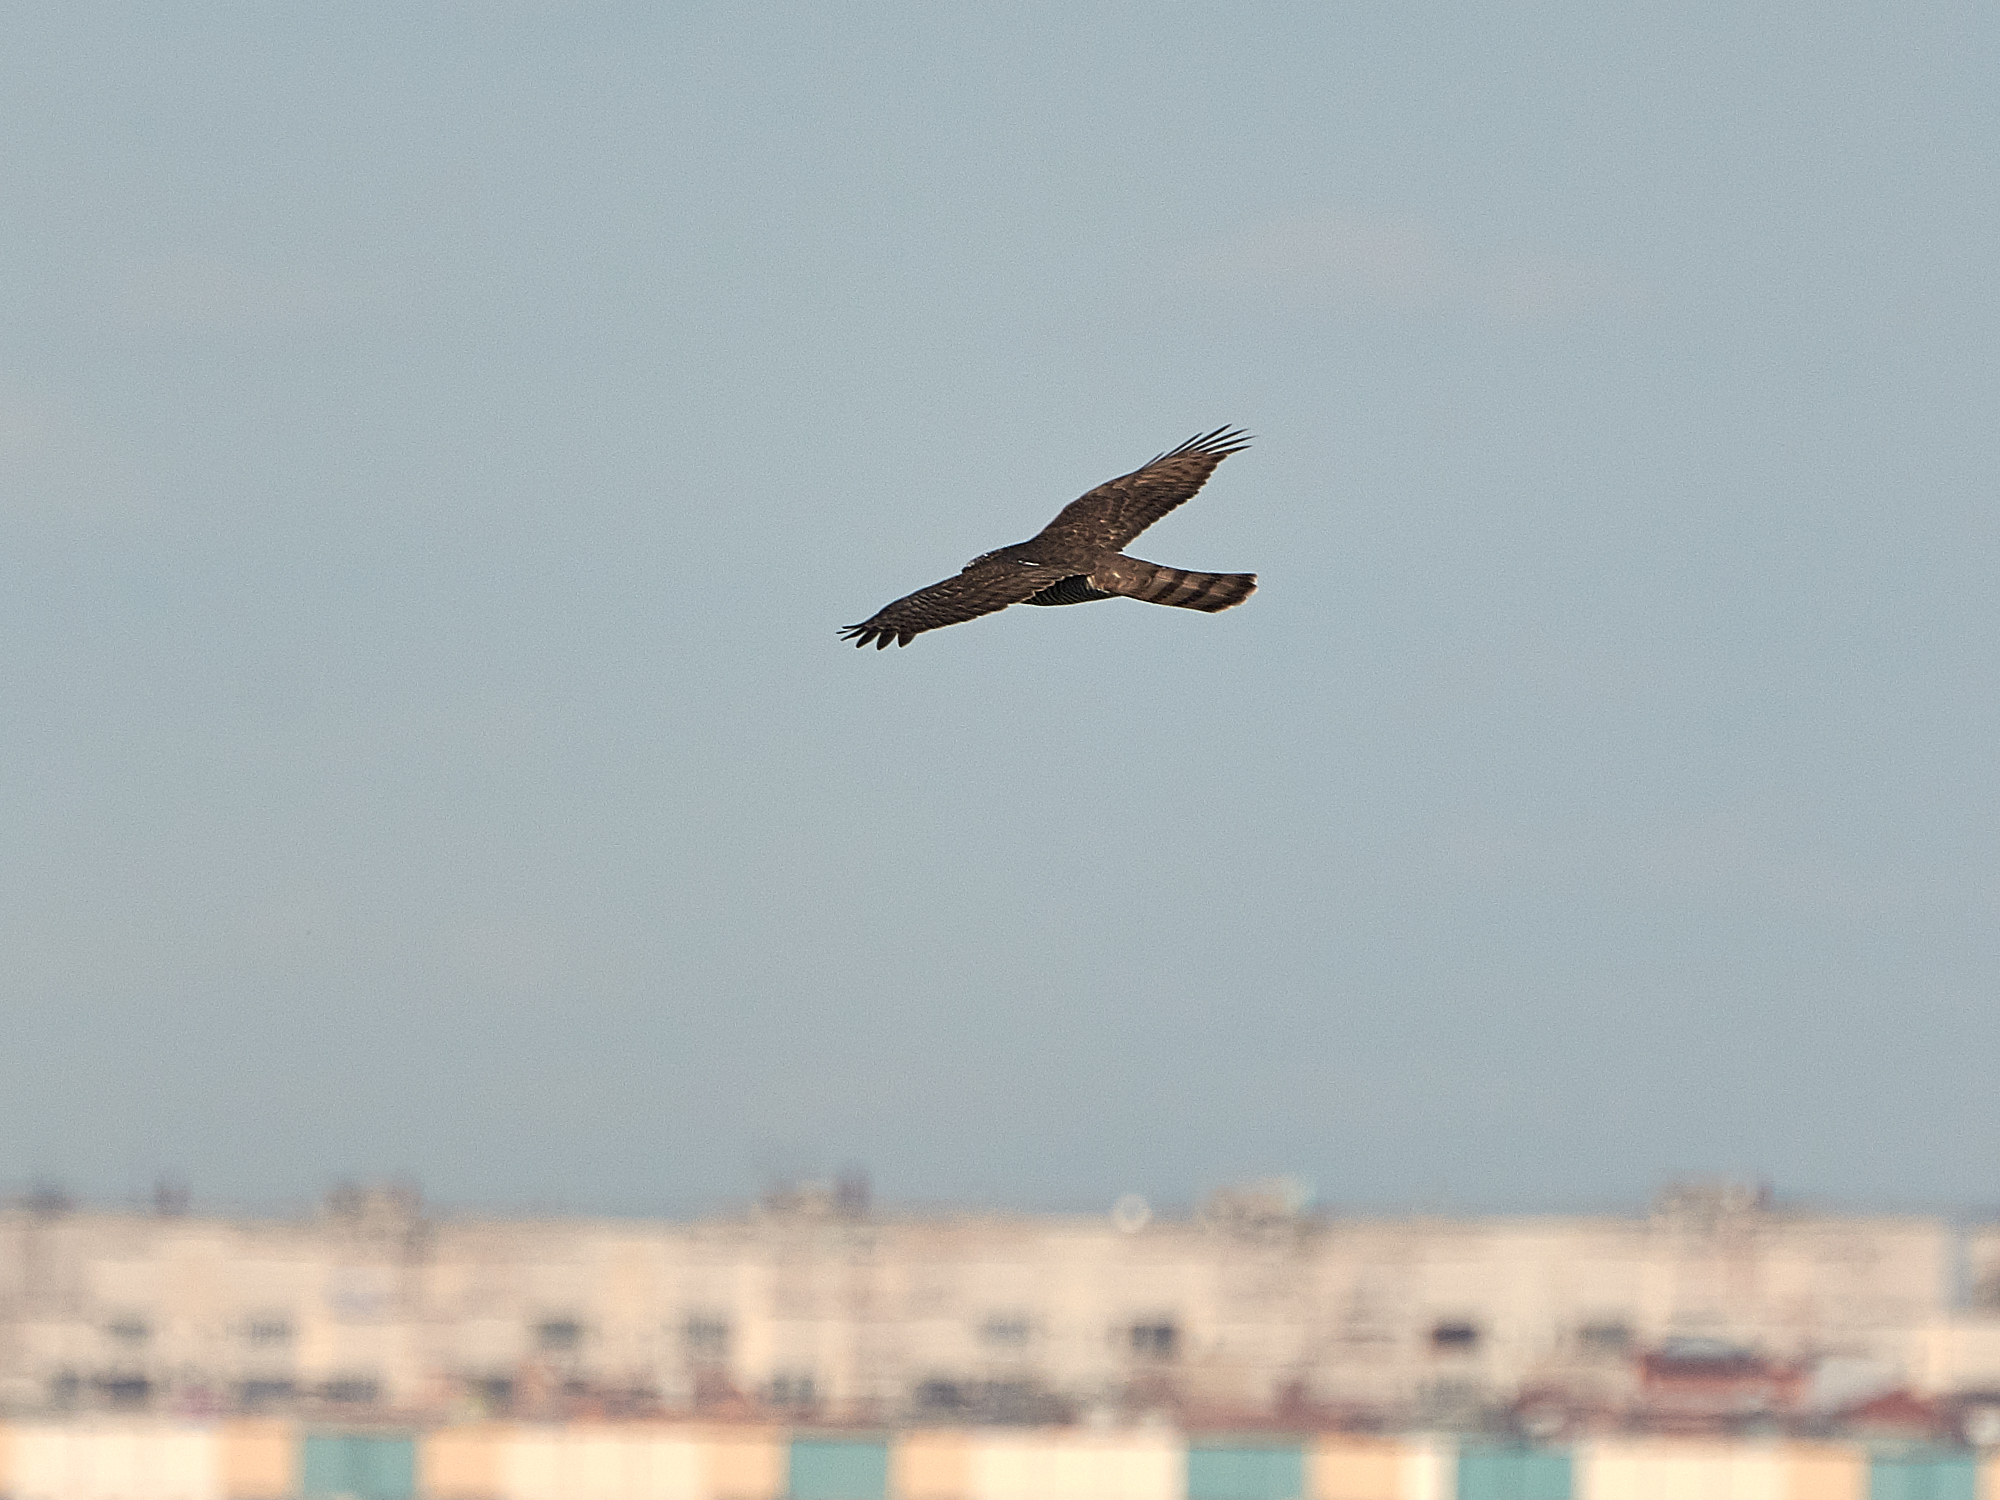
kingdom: Animalia
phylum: Chordata
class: Aves
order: Accipitriformes
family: Accipitridae
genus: Accipiter
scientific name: Accipiter nisus
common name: Eurasian sparrowhawk
